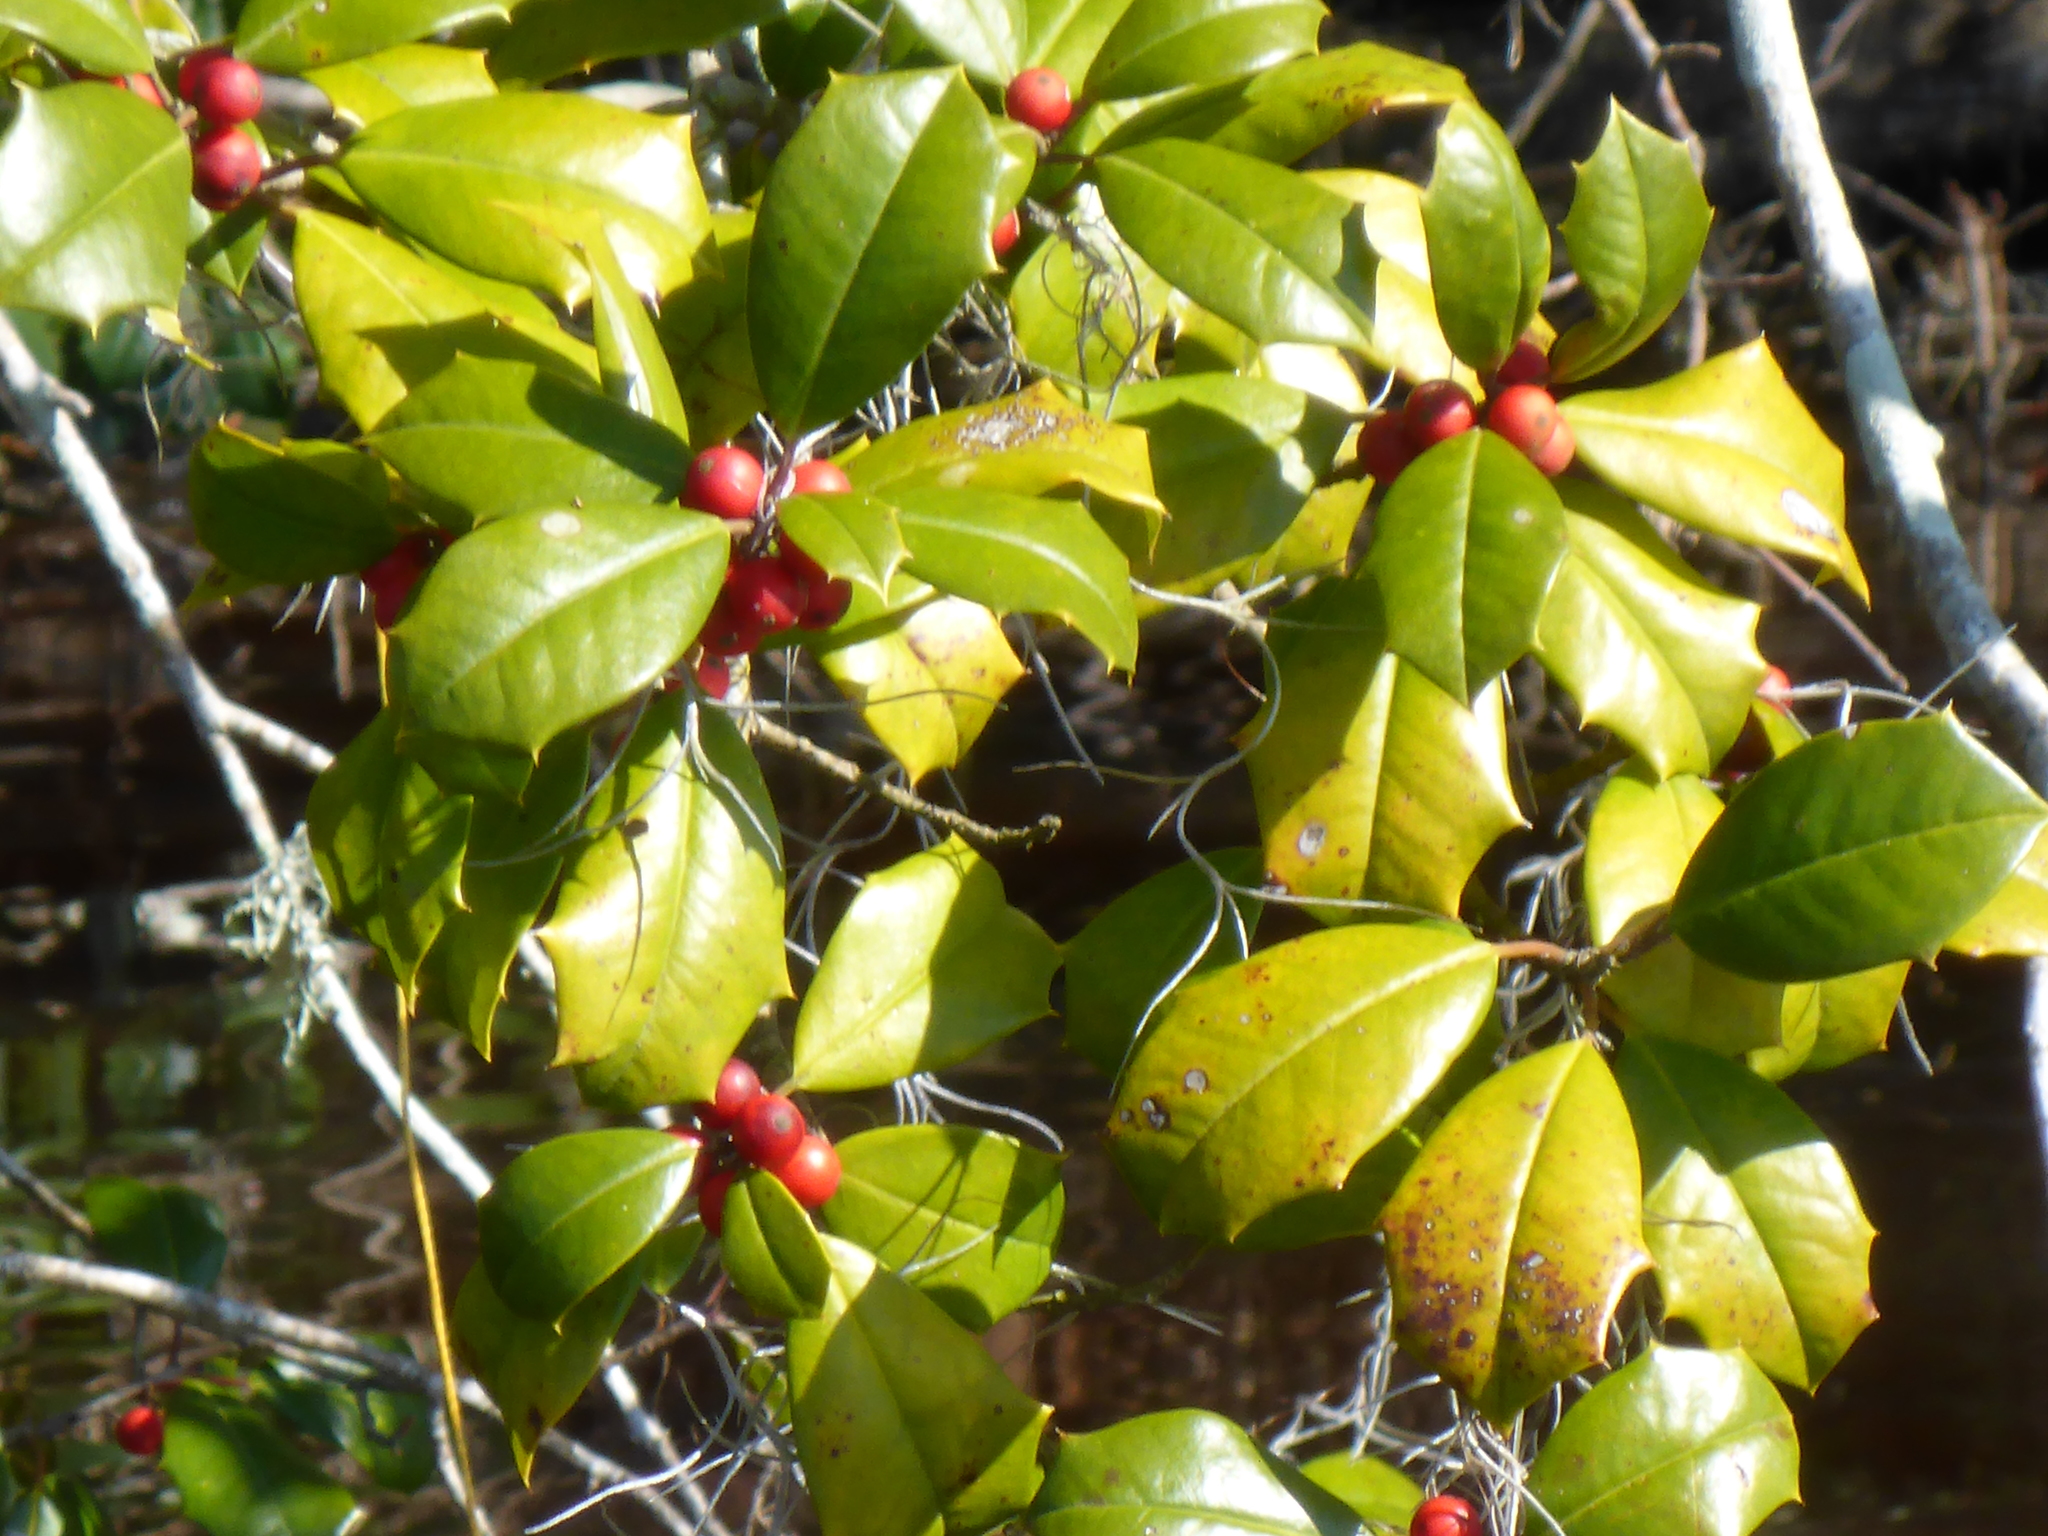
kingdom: Plantae
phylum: Tracheophyta
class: Magnoliopsida
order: Aquifoliales
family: Aquifoliaceae
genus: Ilex
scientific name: Ilex opaca
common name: American holly
